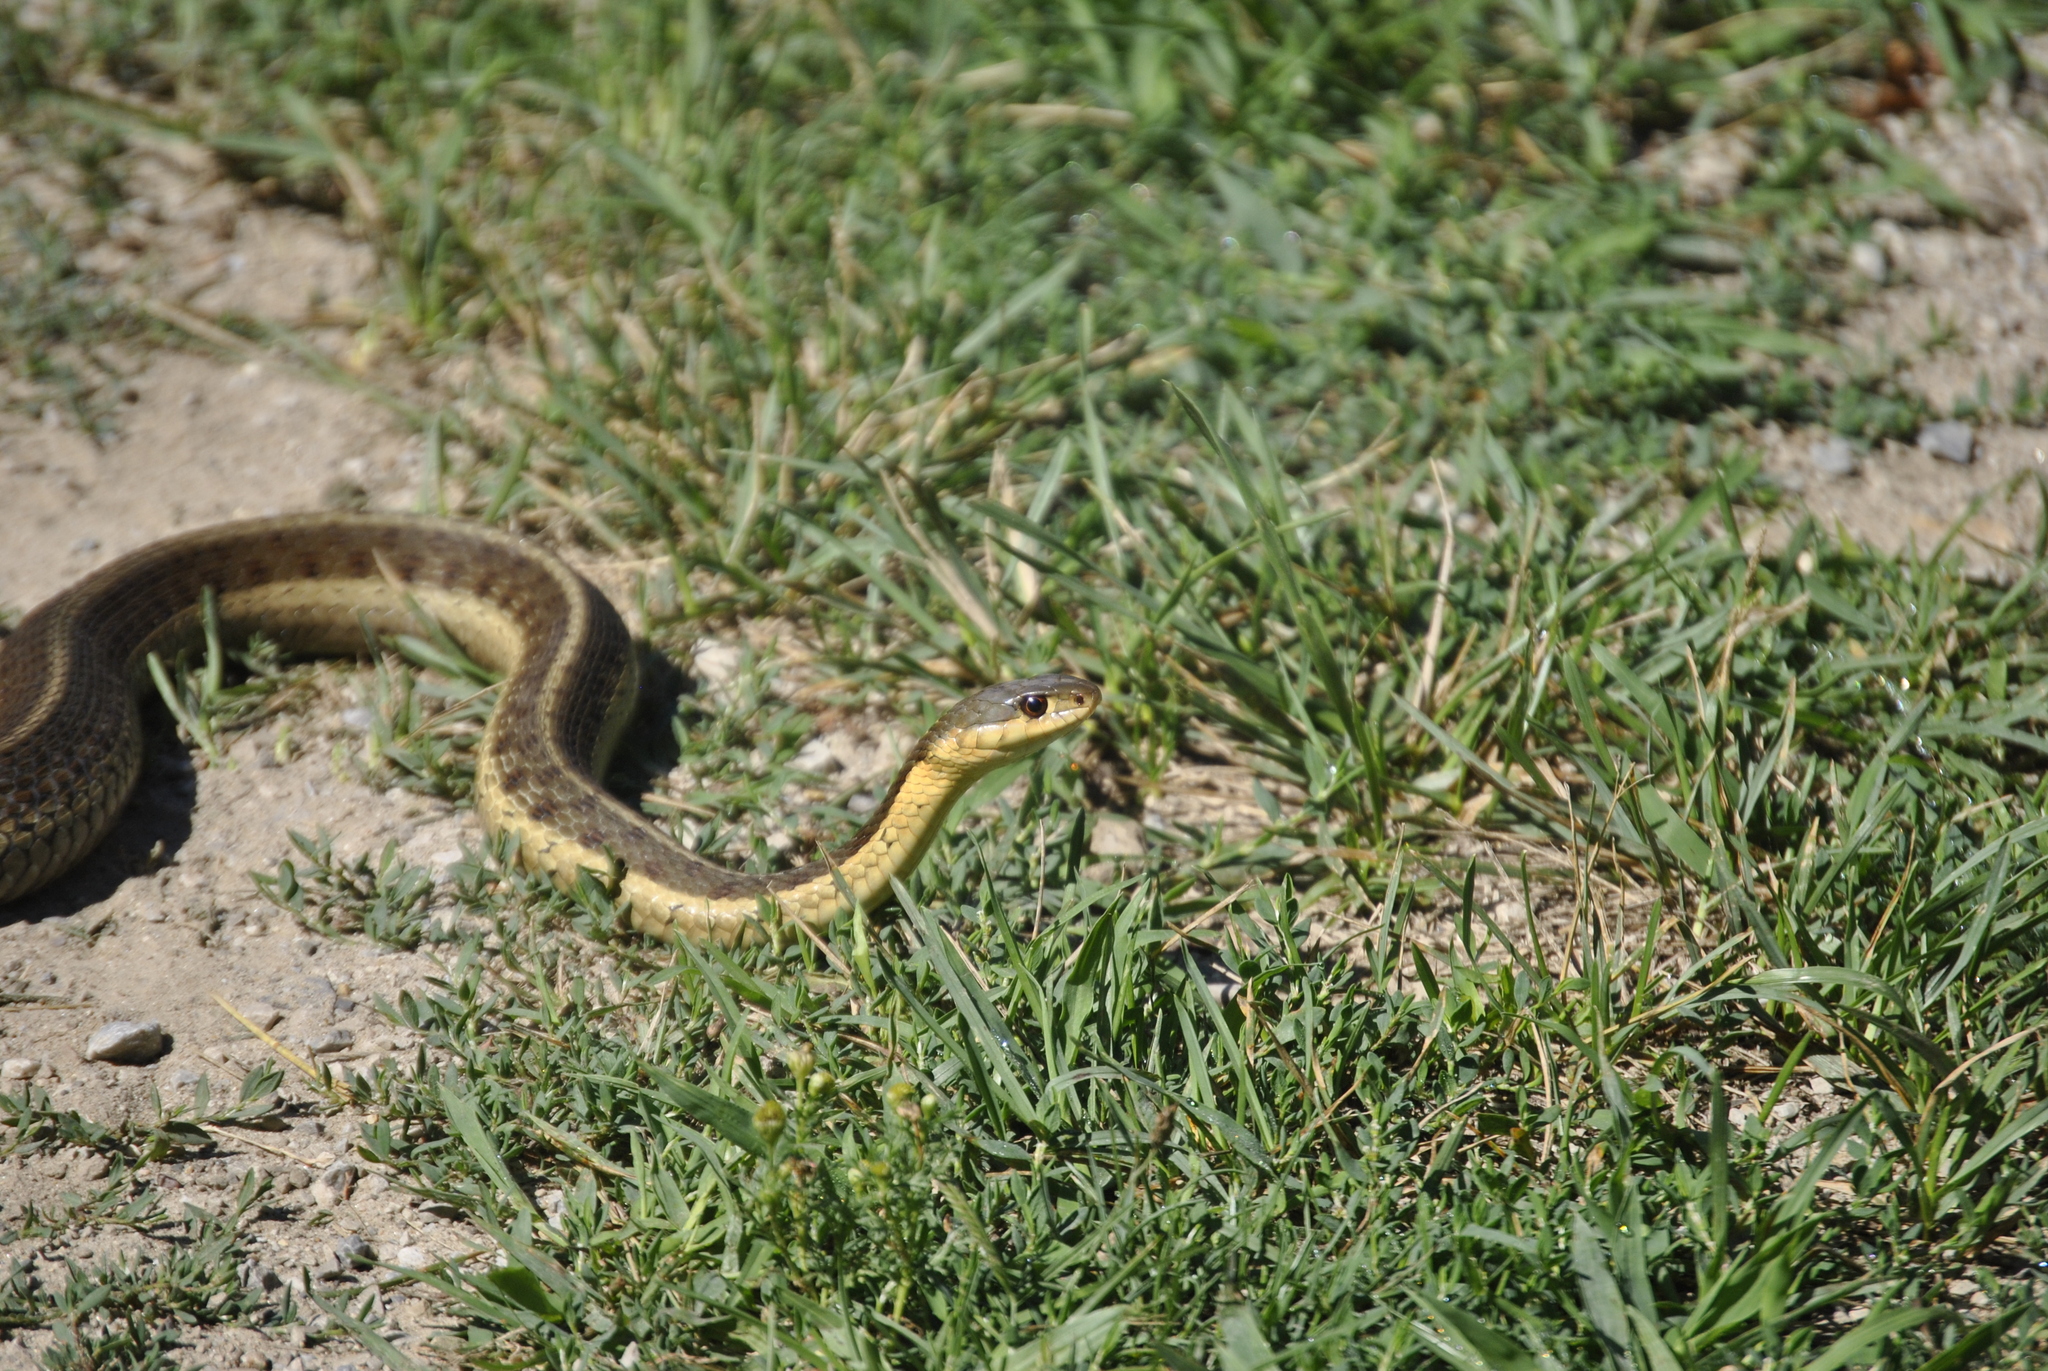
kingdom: Animalia
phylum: Chordata
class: Squamata
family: Colubridae
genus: Thamnophis
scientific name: Thamnophis sirtalis
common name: Common garter snake
